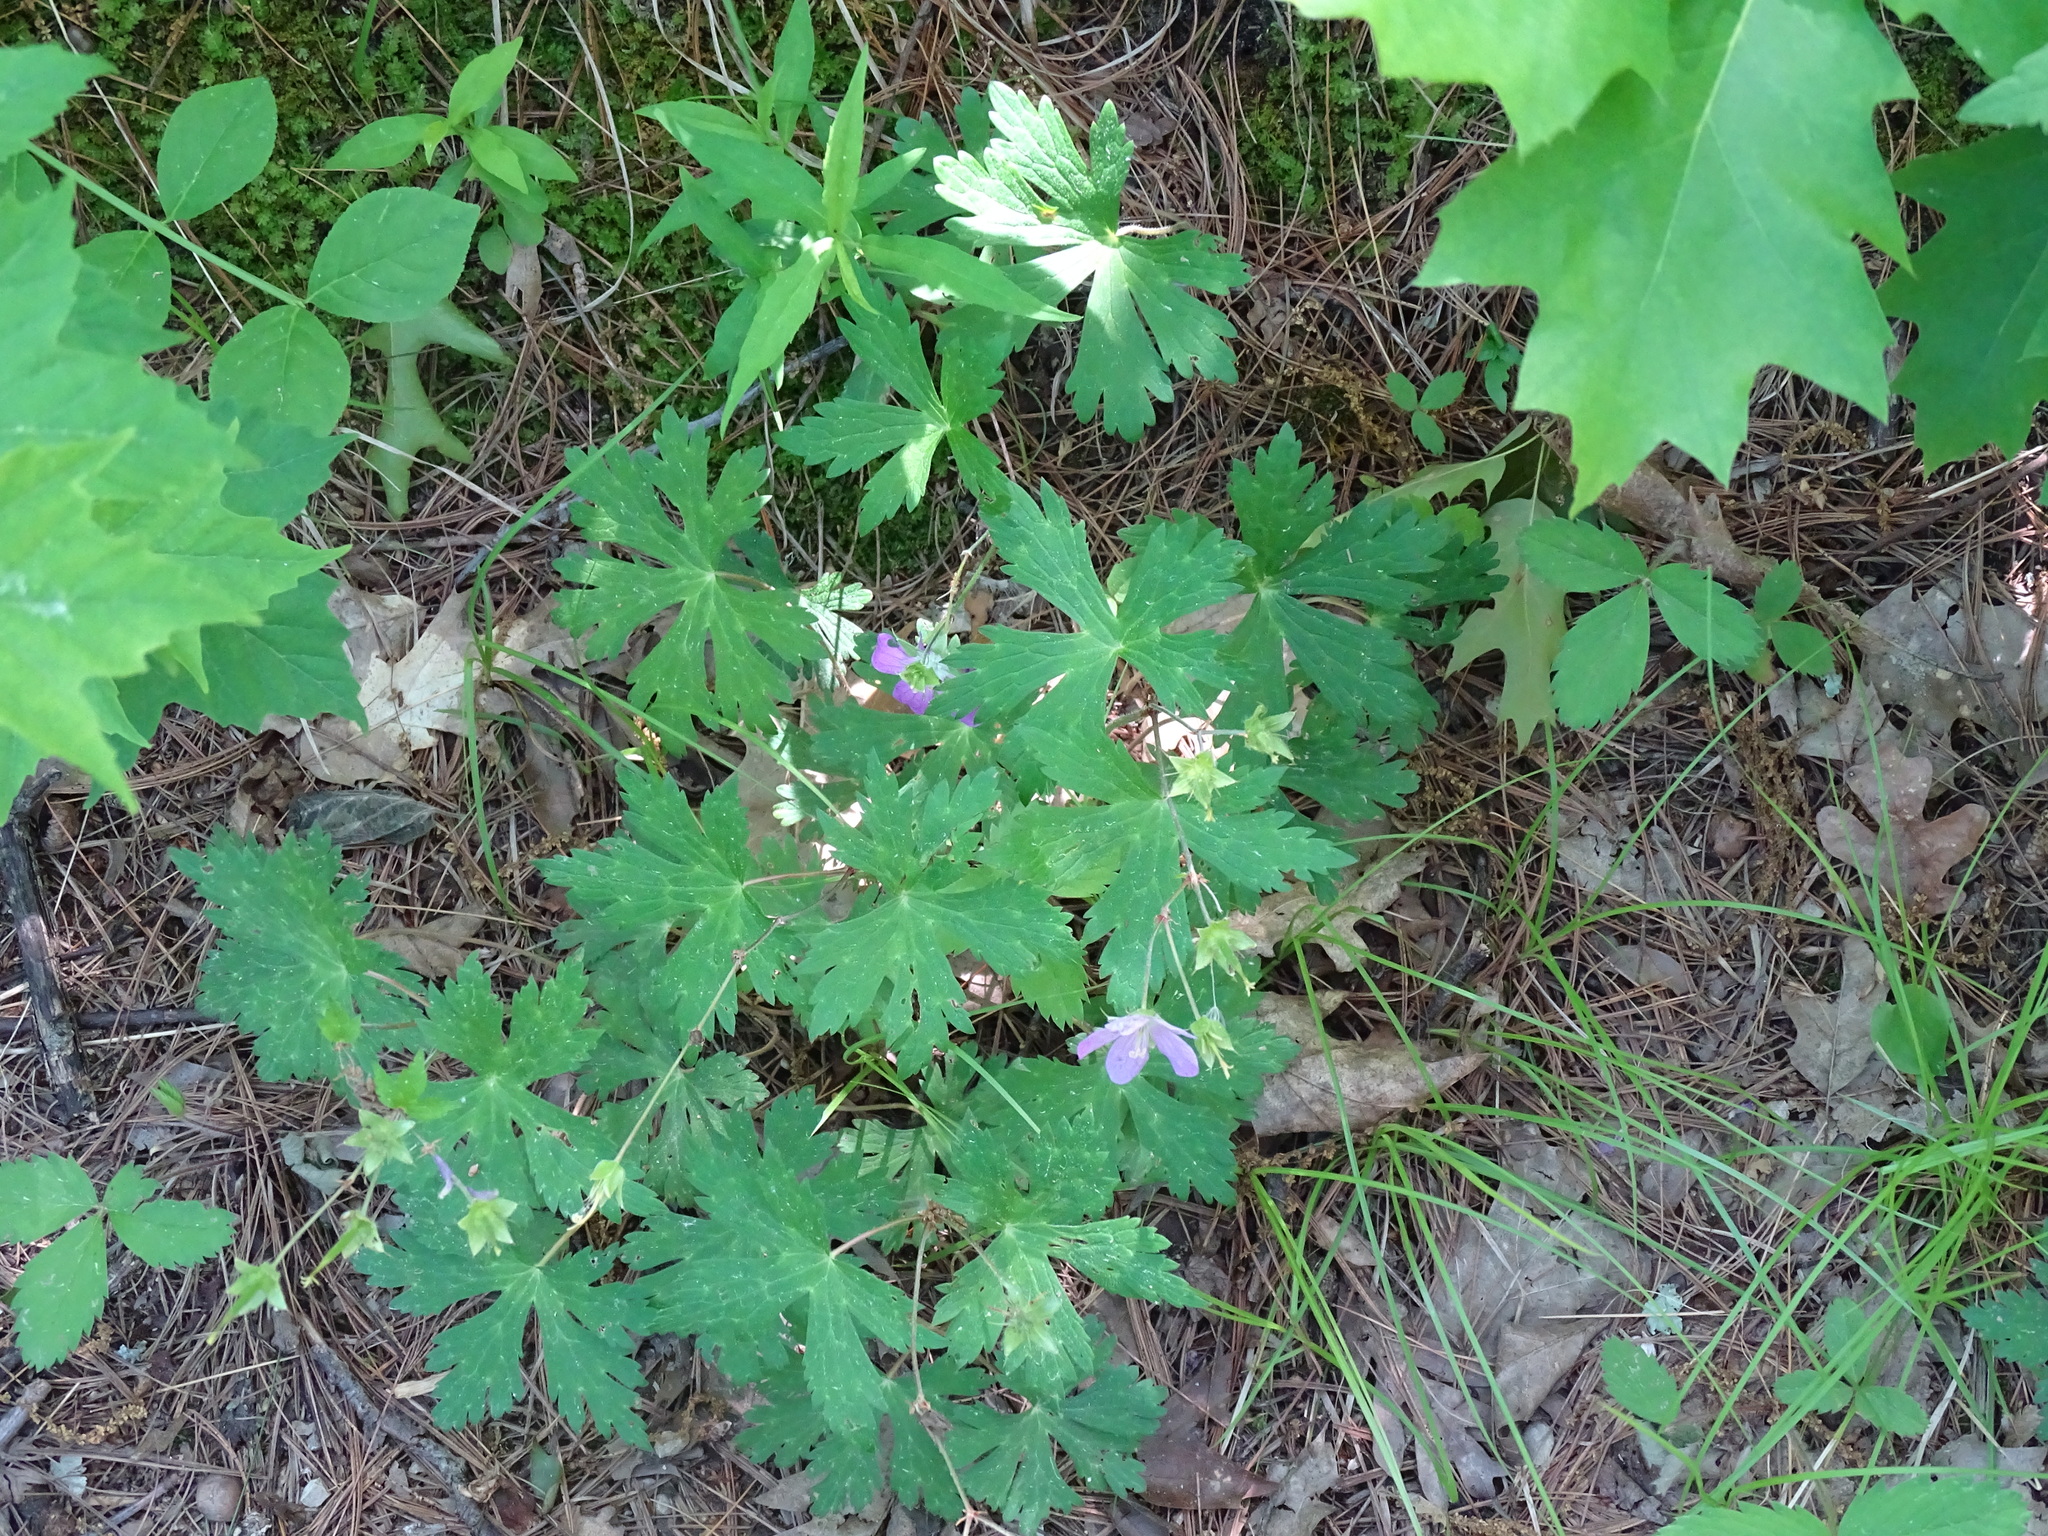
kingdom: Plantae
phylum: Tracheophyta
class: Magnoliopsida
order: Geraniales
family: Geraniaceae
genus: Geranium
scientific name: Geranium maculatum
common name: Spotted geranium
